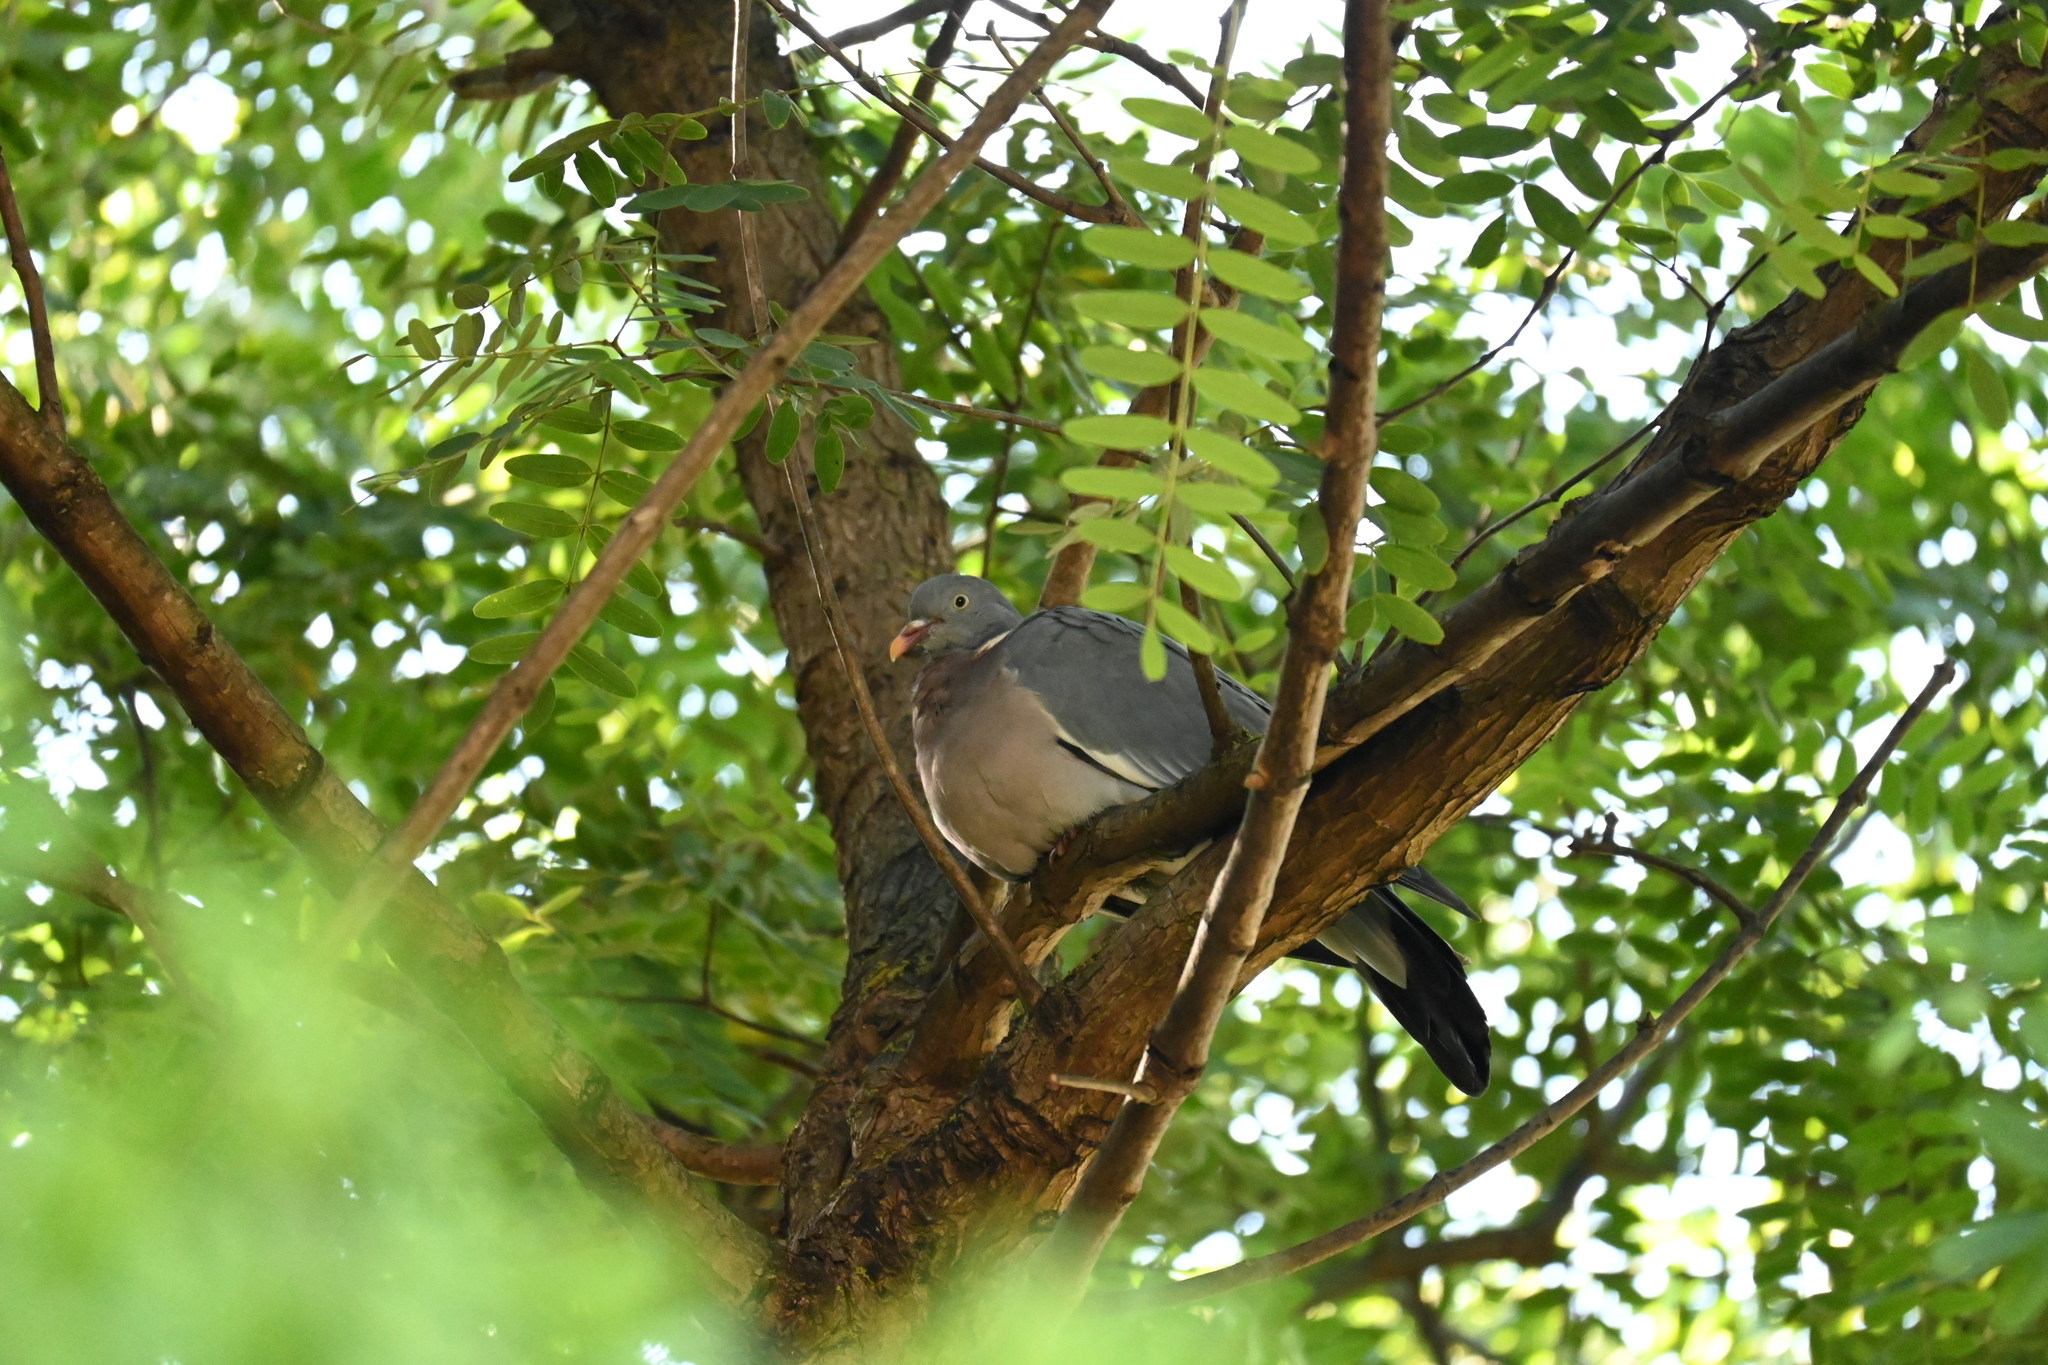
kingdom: Animalia
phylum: Chordata
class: Aves
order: Columbiformes
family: Columbidae
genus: Columba
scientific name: Columba palumbus
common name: Common wood pigeon
